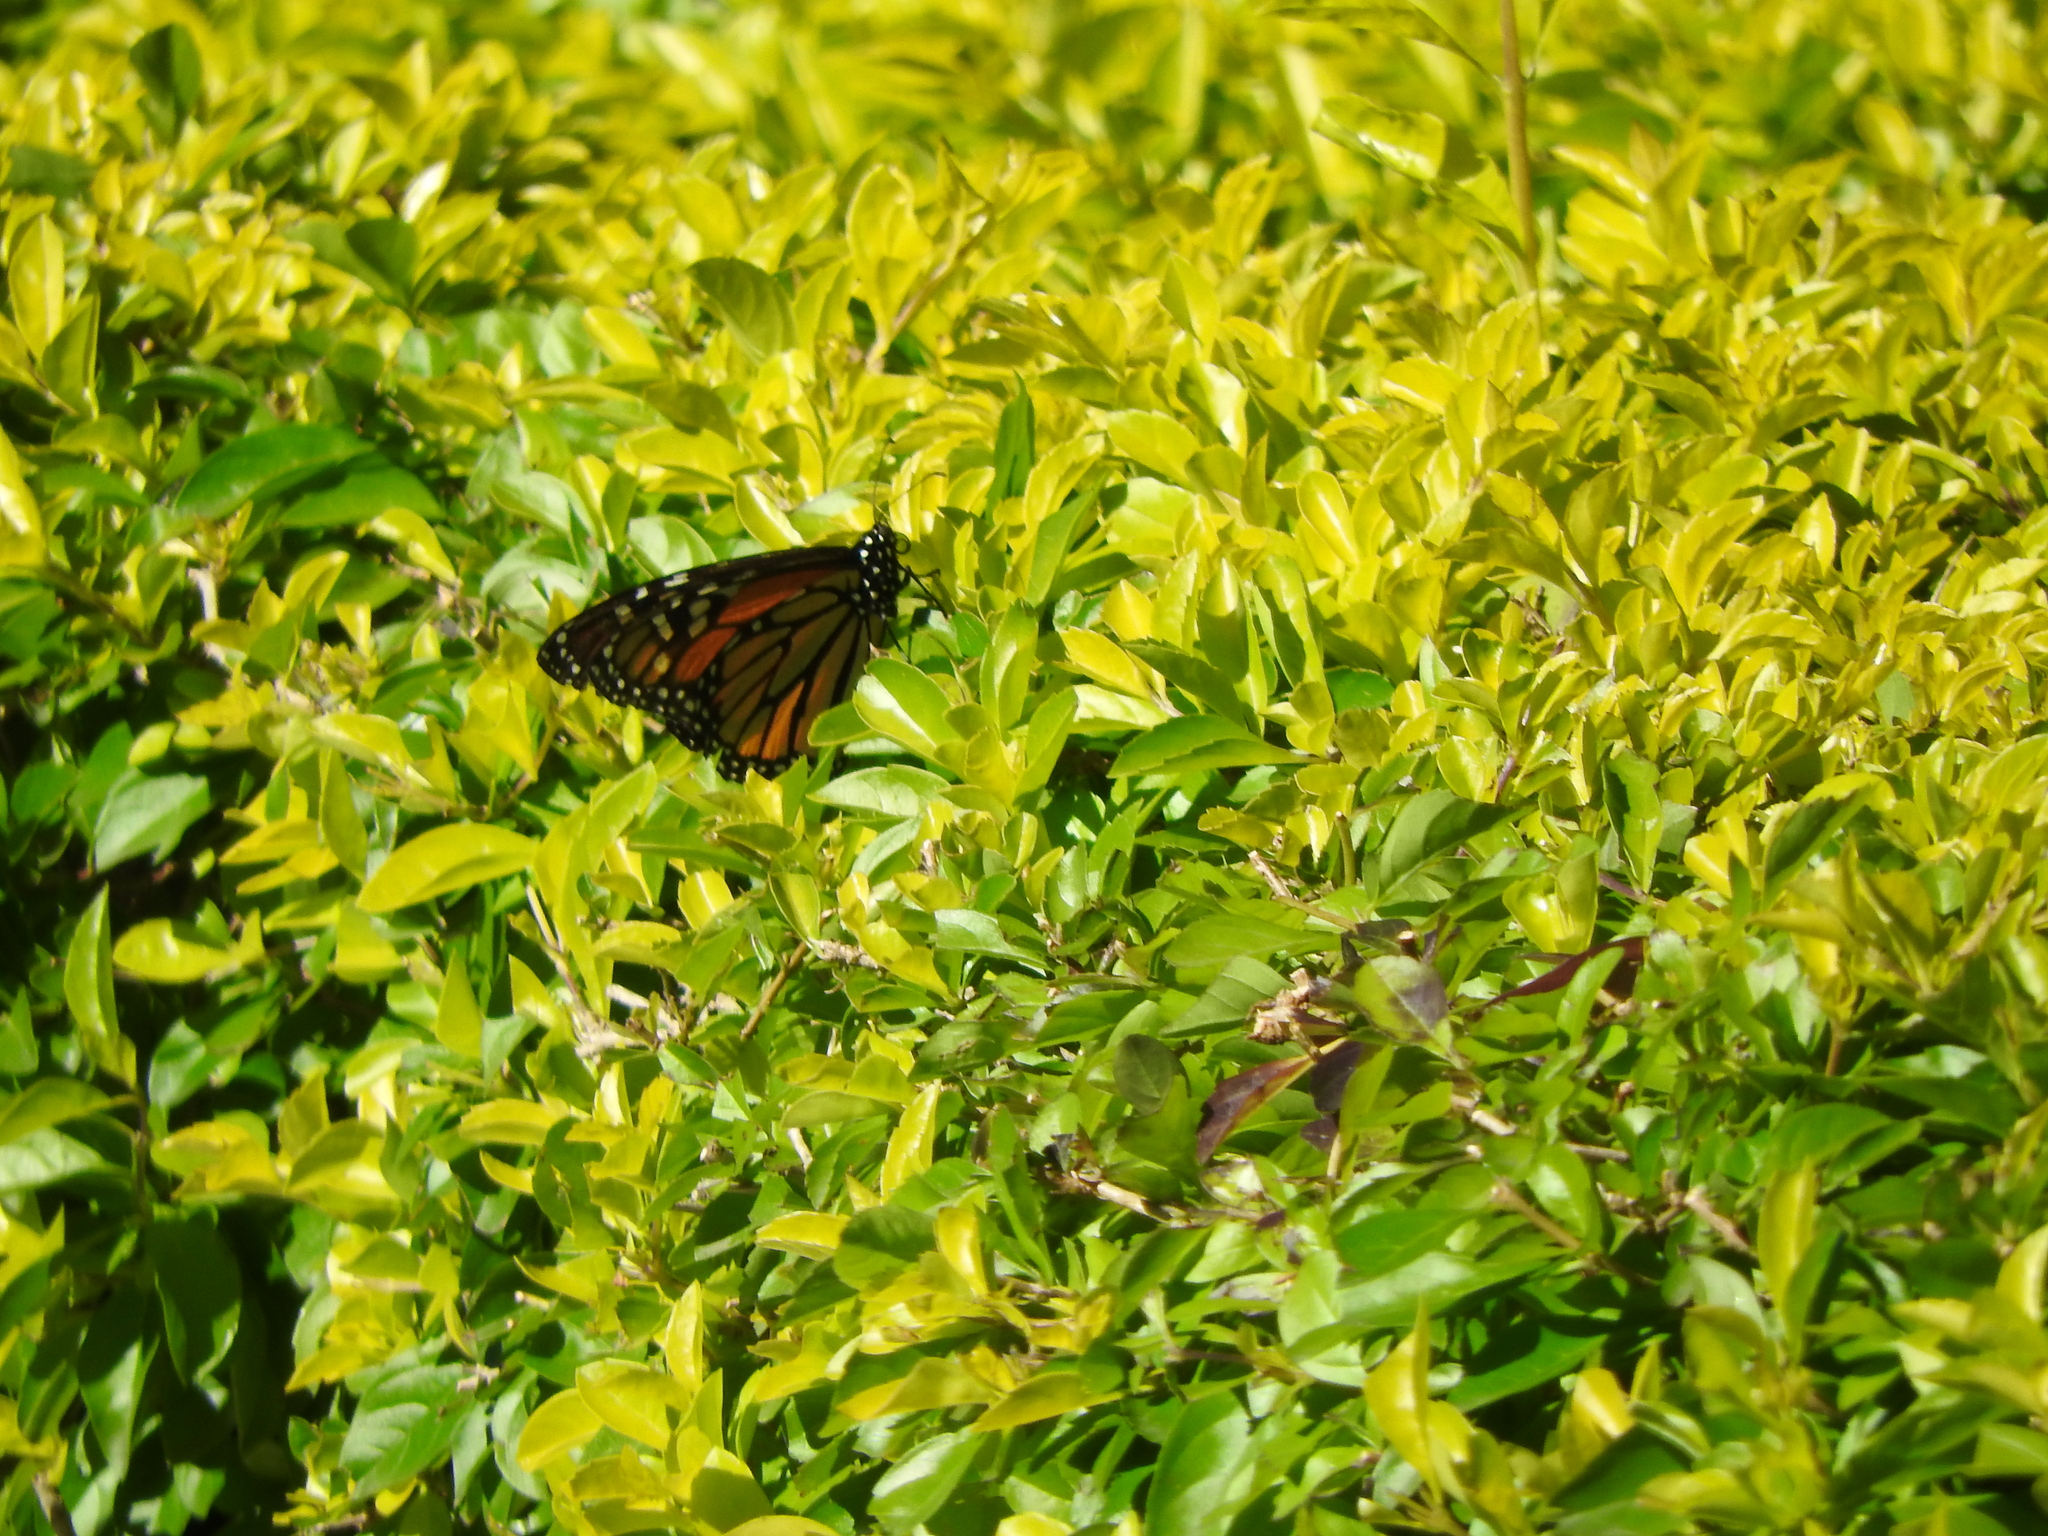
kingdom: Animalia
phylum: Arthropoda
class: Insecta
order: Lepidoptera
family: Nymphalidae
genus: Danaus
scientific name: Danaus plexippus
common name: Monarch
